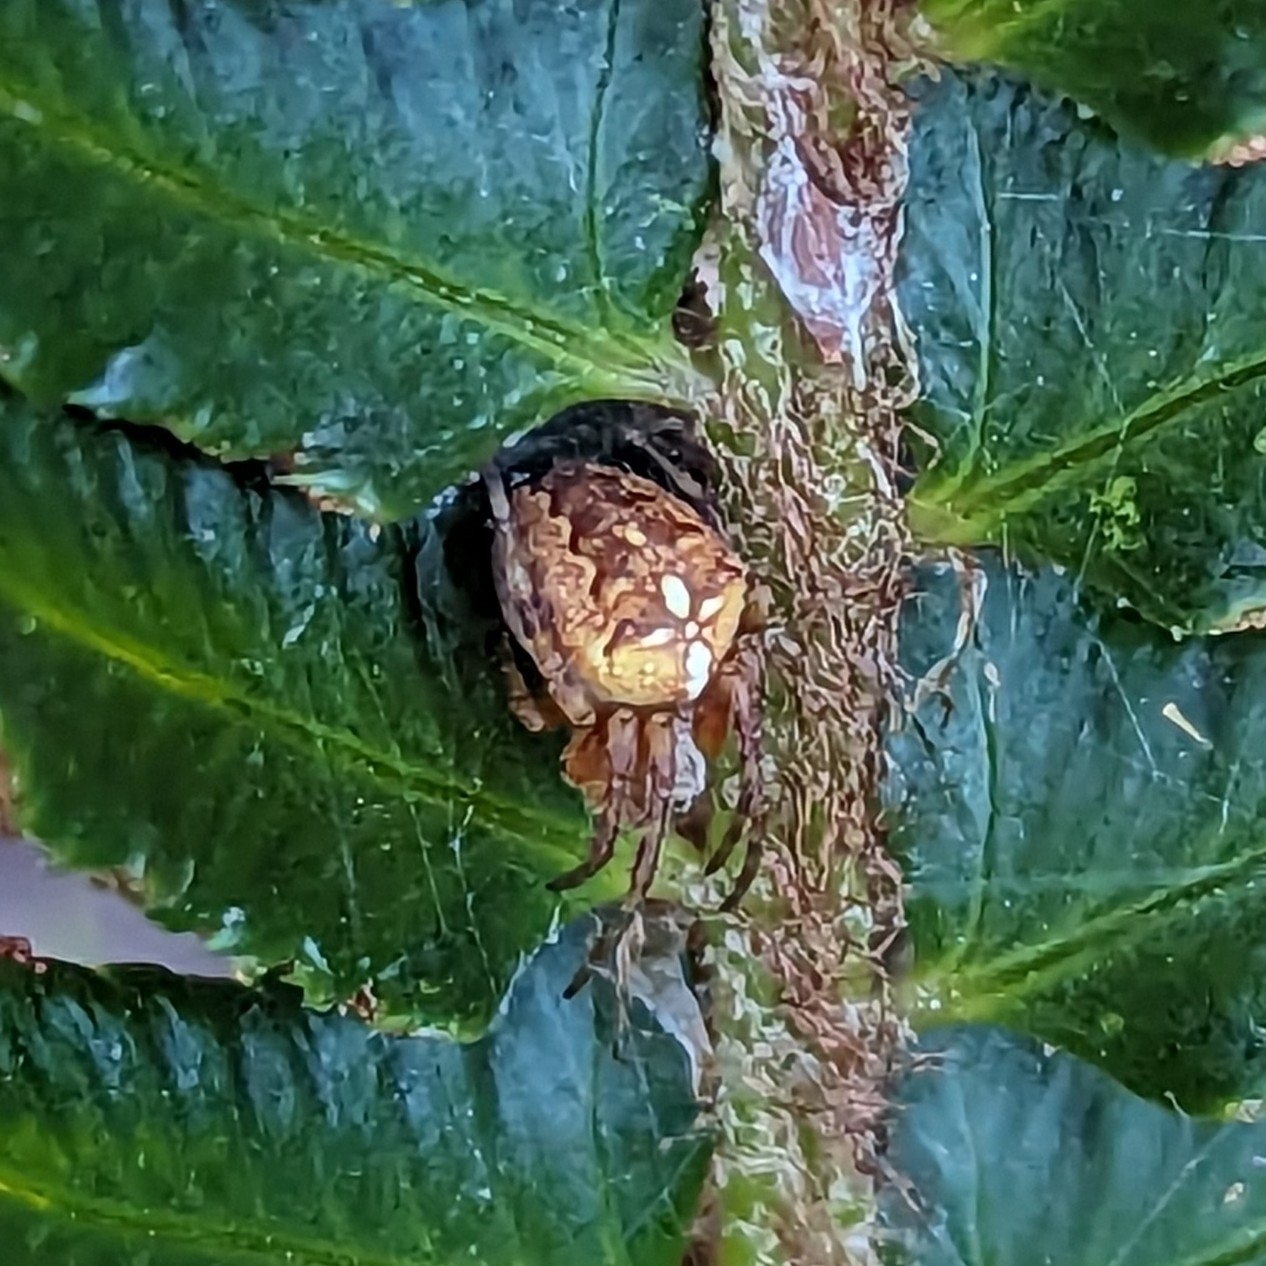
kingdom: Animalia
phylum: Arthropoda
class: Arachnida
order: Araneae
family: Araneidae
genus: Araneus
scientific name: Araneus diadematus
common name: Cross orbweaver
